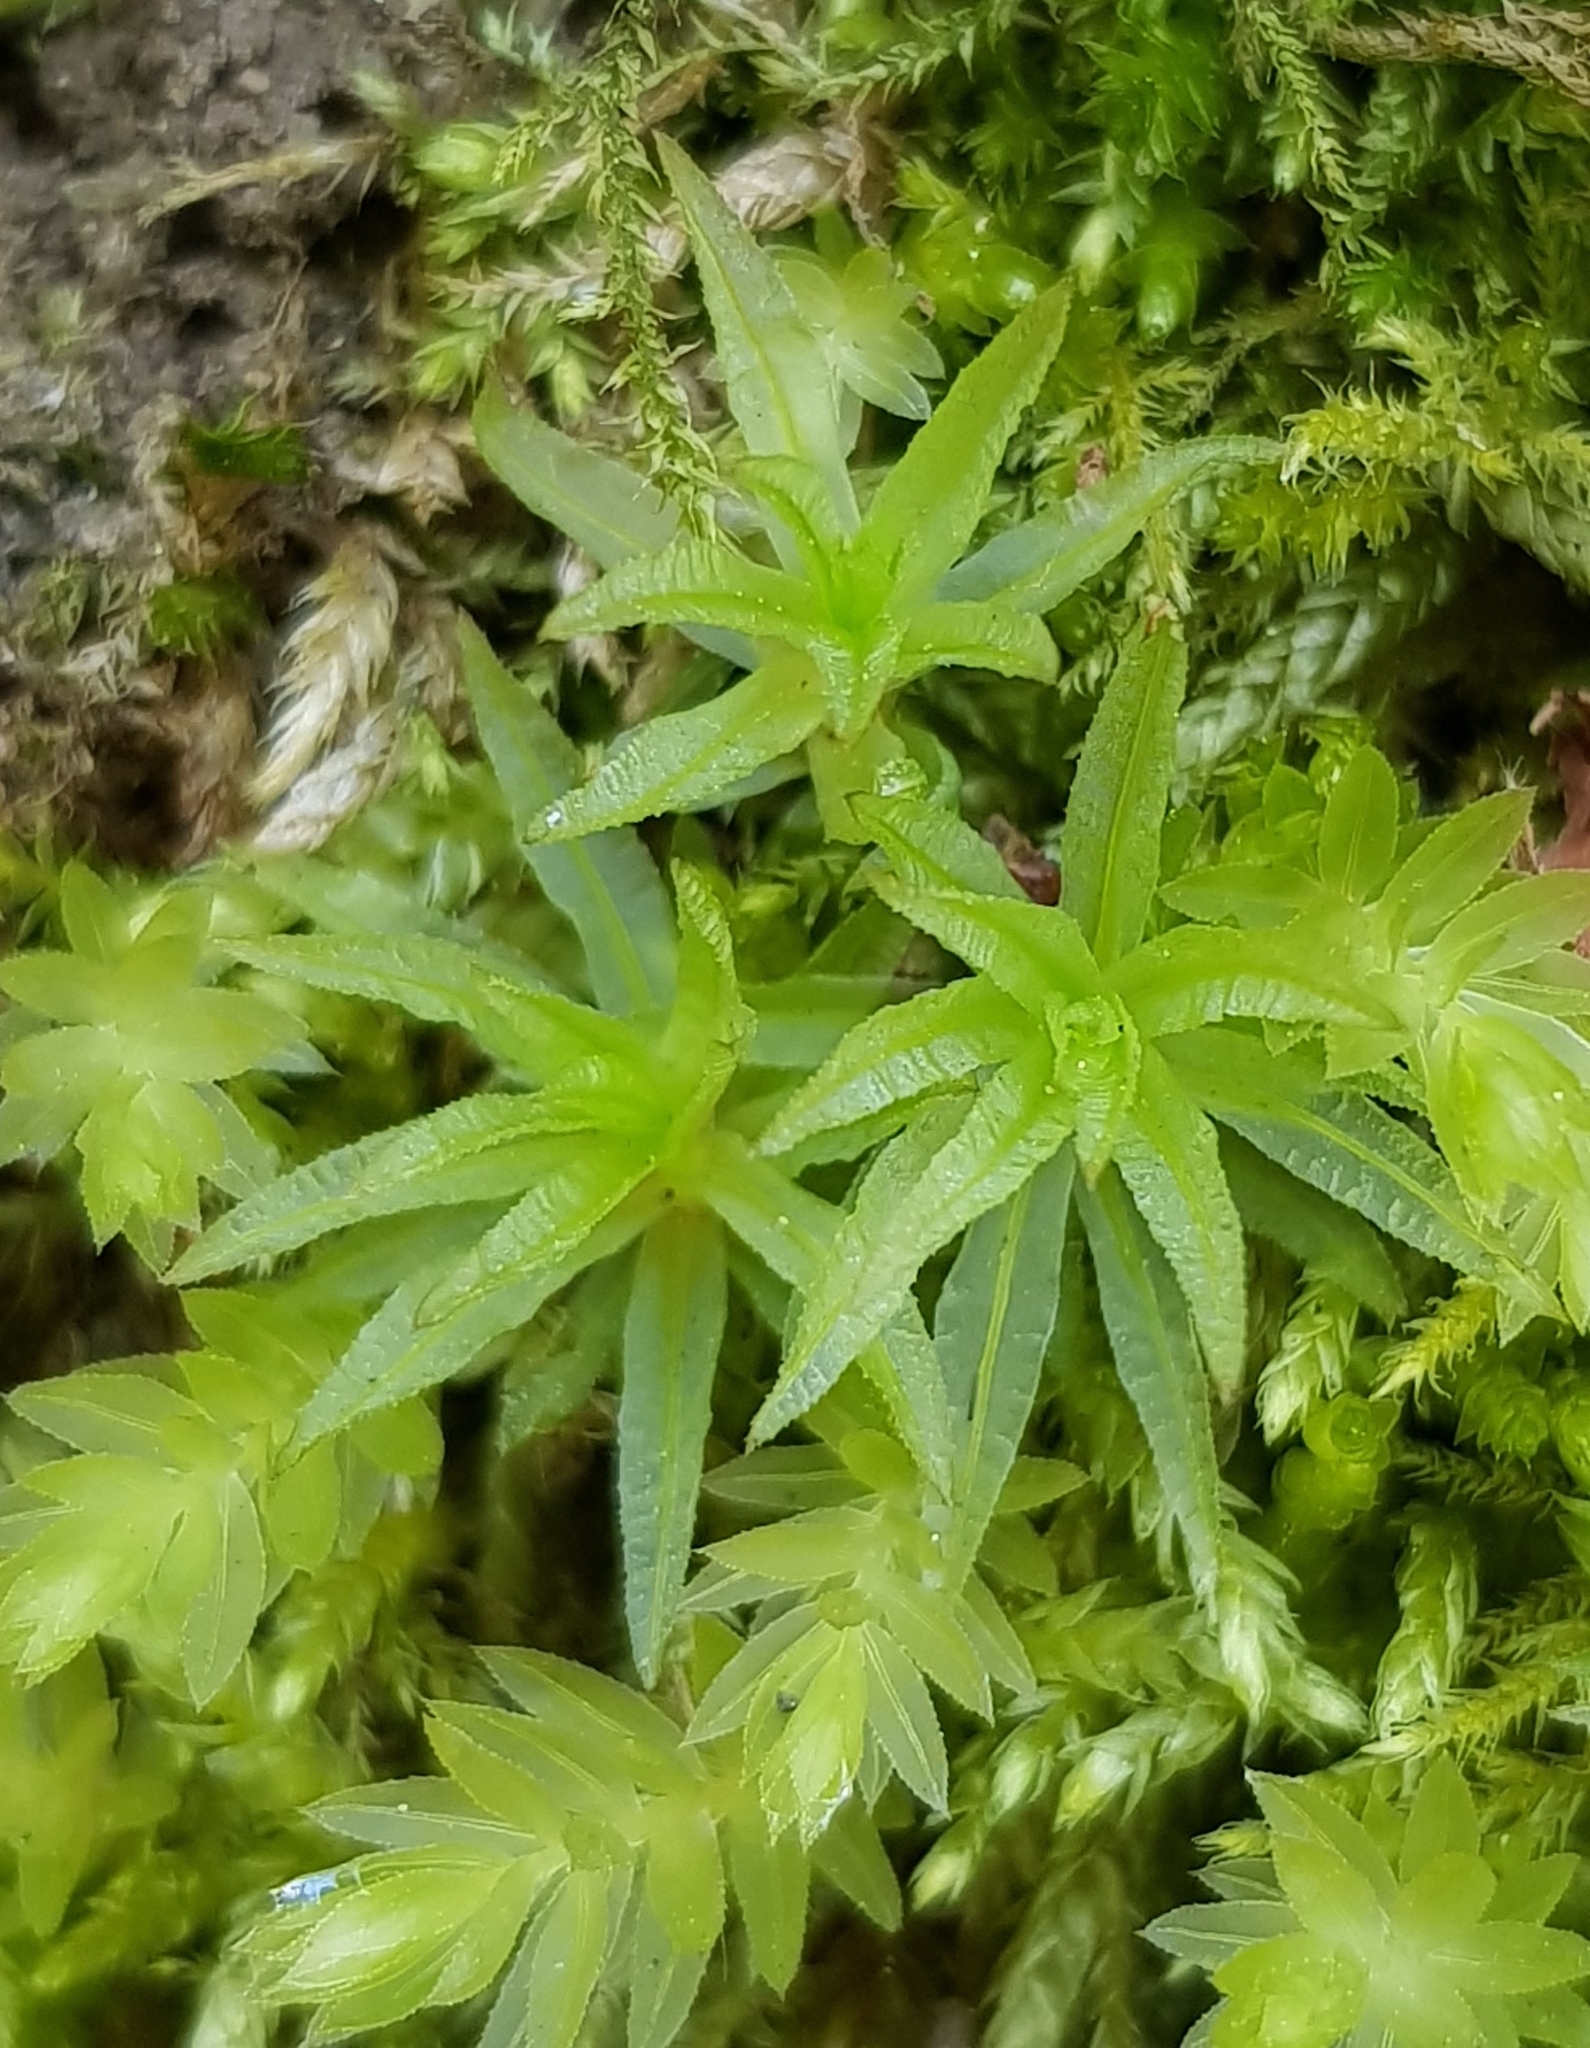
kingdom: Plantae
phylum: Bryophyta
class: Polytrichopsida
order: Polytrichales
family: Polytrichaceae
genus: Atrichum
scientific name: Atrichum undulatum
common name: Common smoothcap
